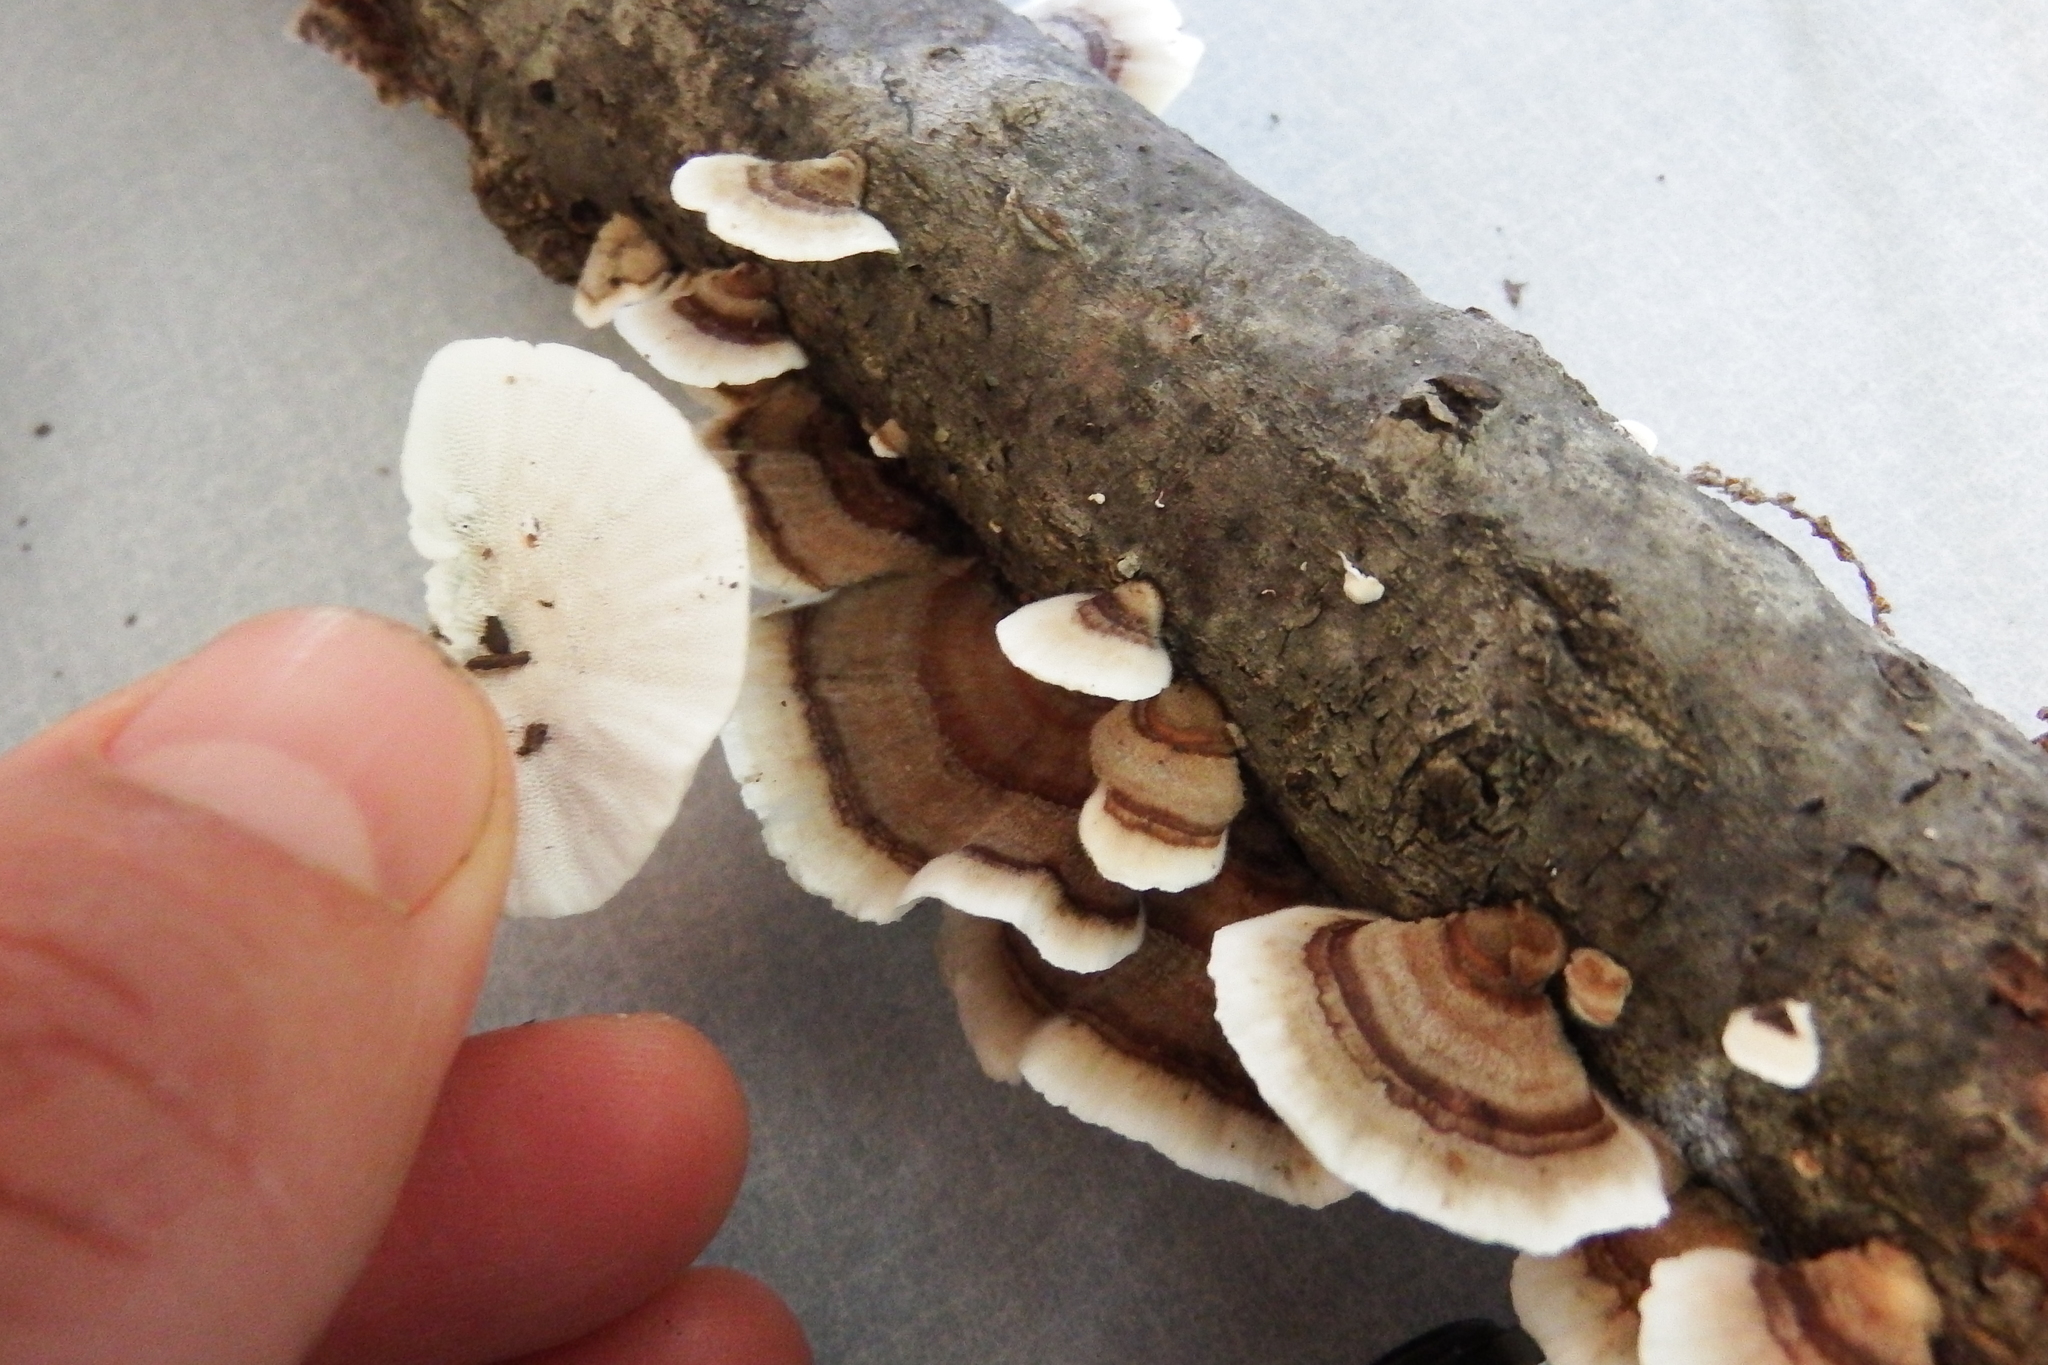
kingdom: Fungi
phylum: Basidiomycota
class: Agaricomycetes
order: Polyporales
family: Polyporaceae
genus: Trametes
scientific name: Trametes versicolor
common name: Turkeytail
